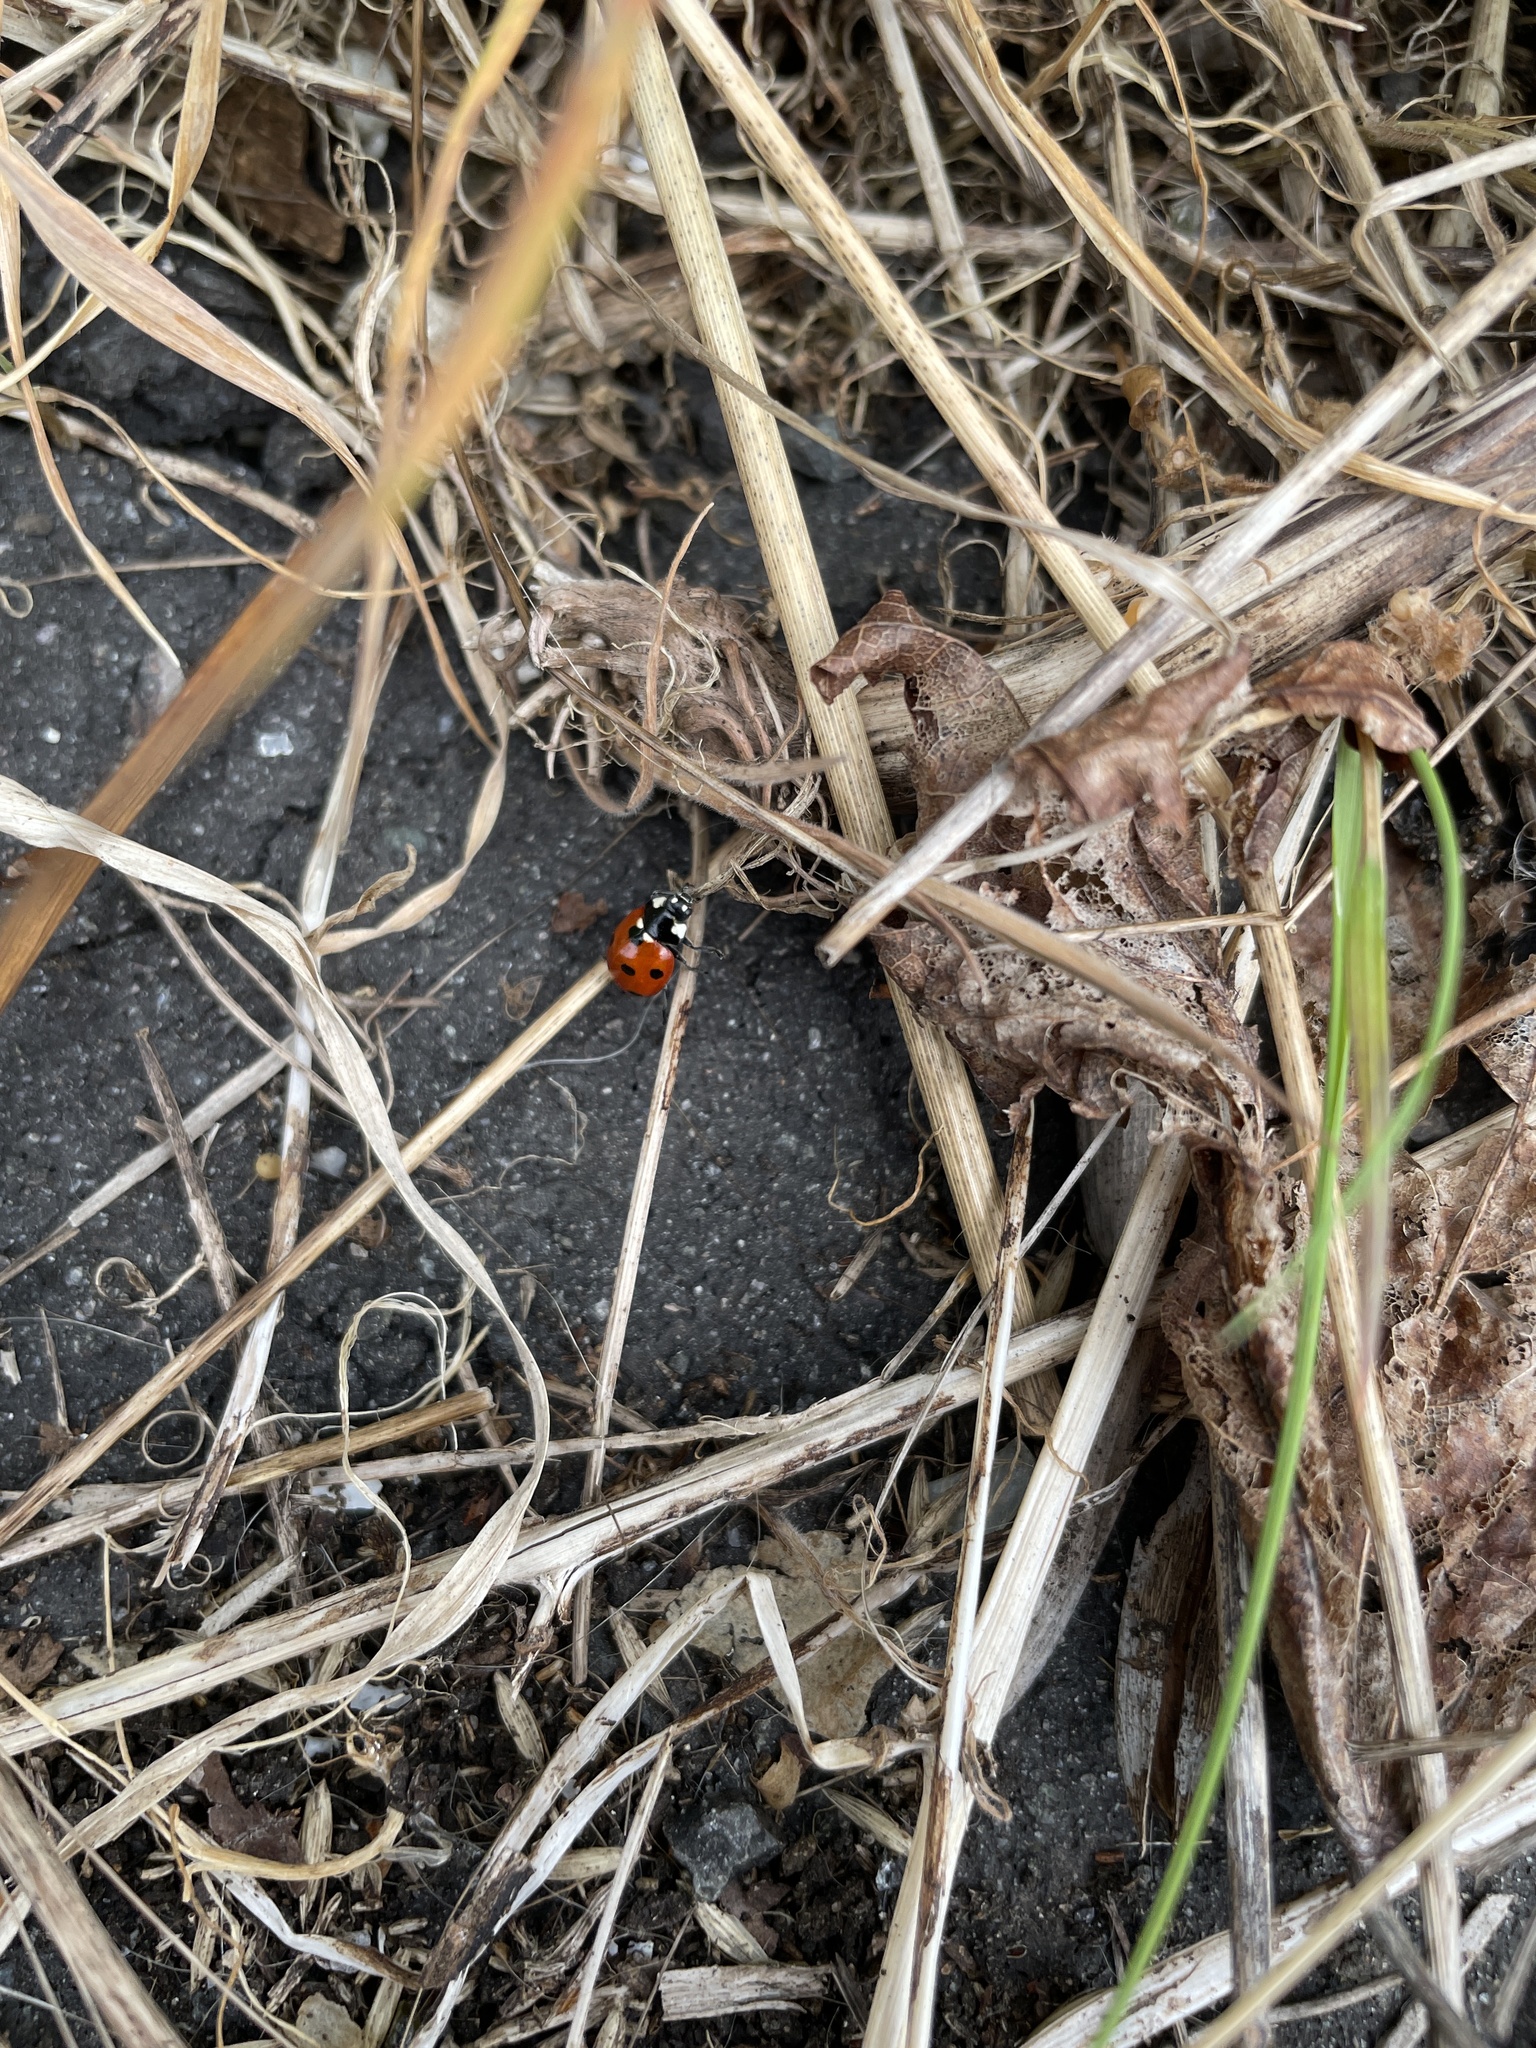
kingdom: Animalia
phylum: Arthropoda
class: Insecta
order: Coleoptera
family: Coccinellidae
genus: Coccinella
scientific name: Coccinella septempunctata
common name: Sevenspotted lady beetle
